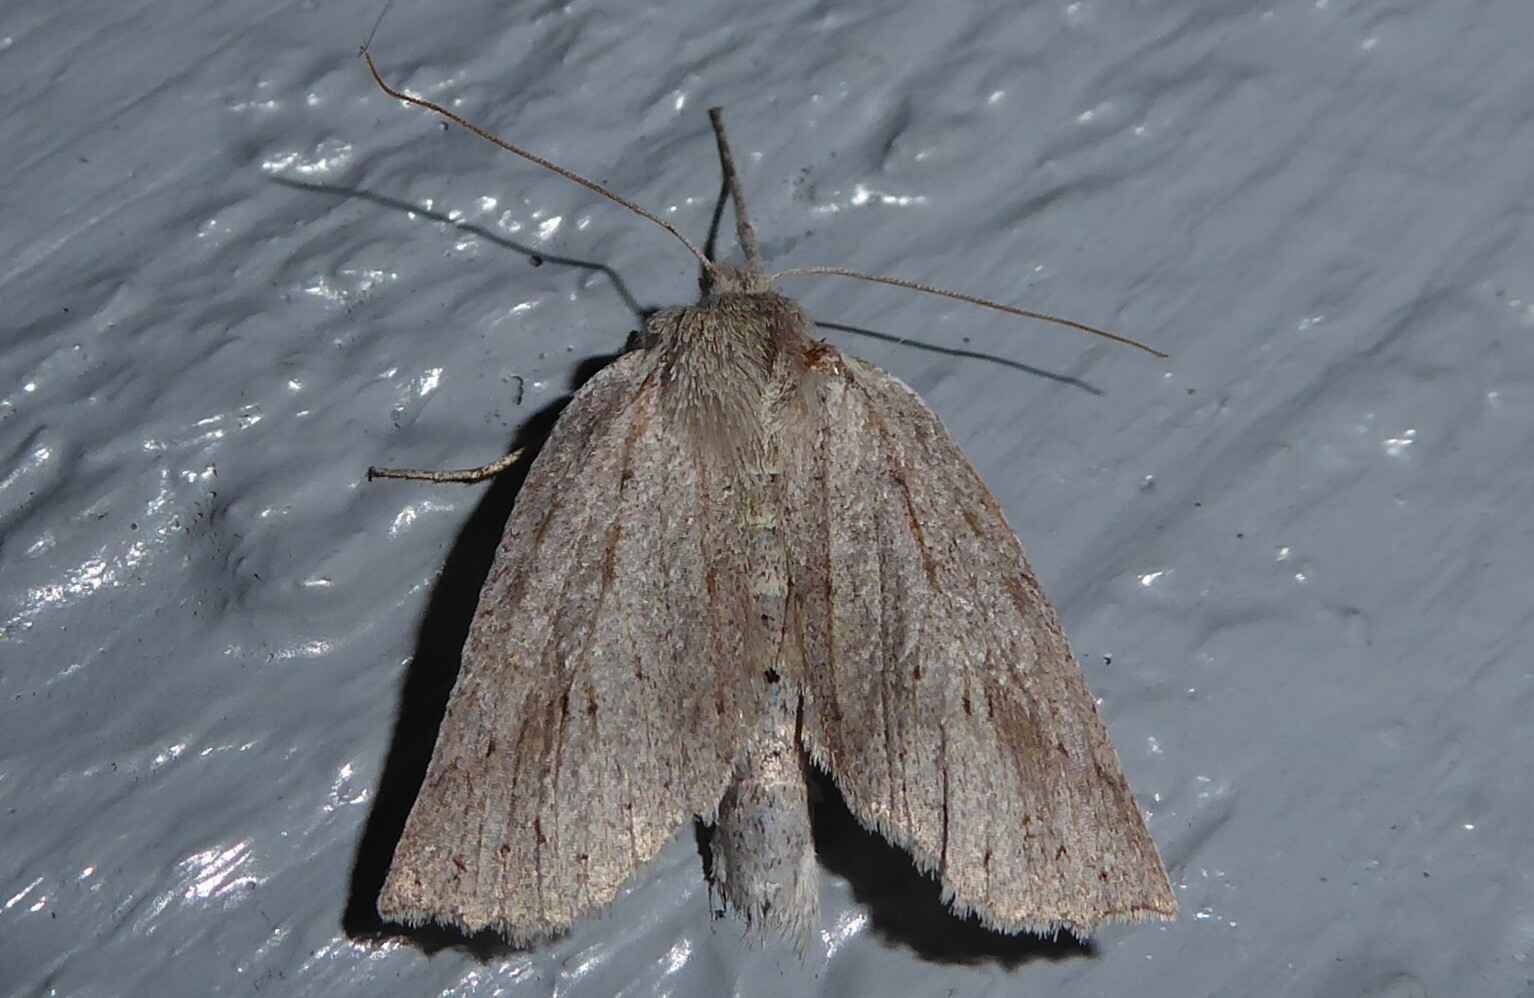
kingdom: Animalia
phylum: Arthropoda
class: Insecta
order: Lepidoptera
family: Geometridae
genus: Declana
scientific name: Declana leptomera
